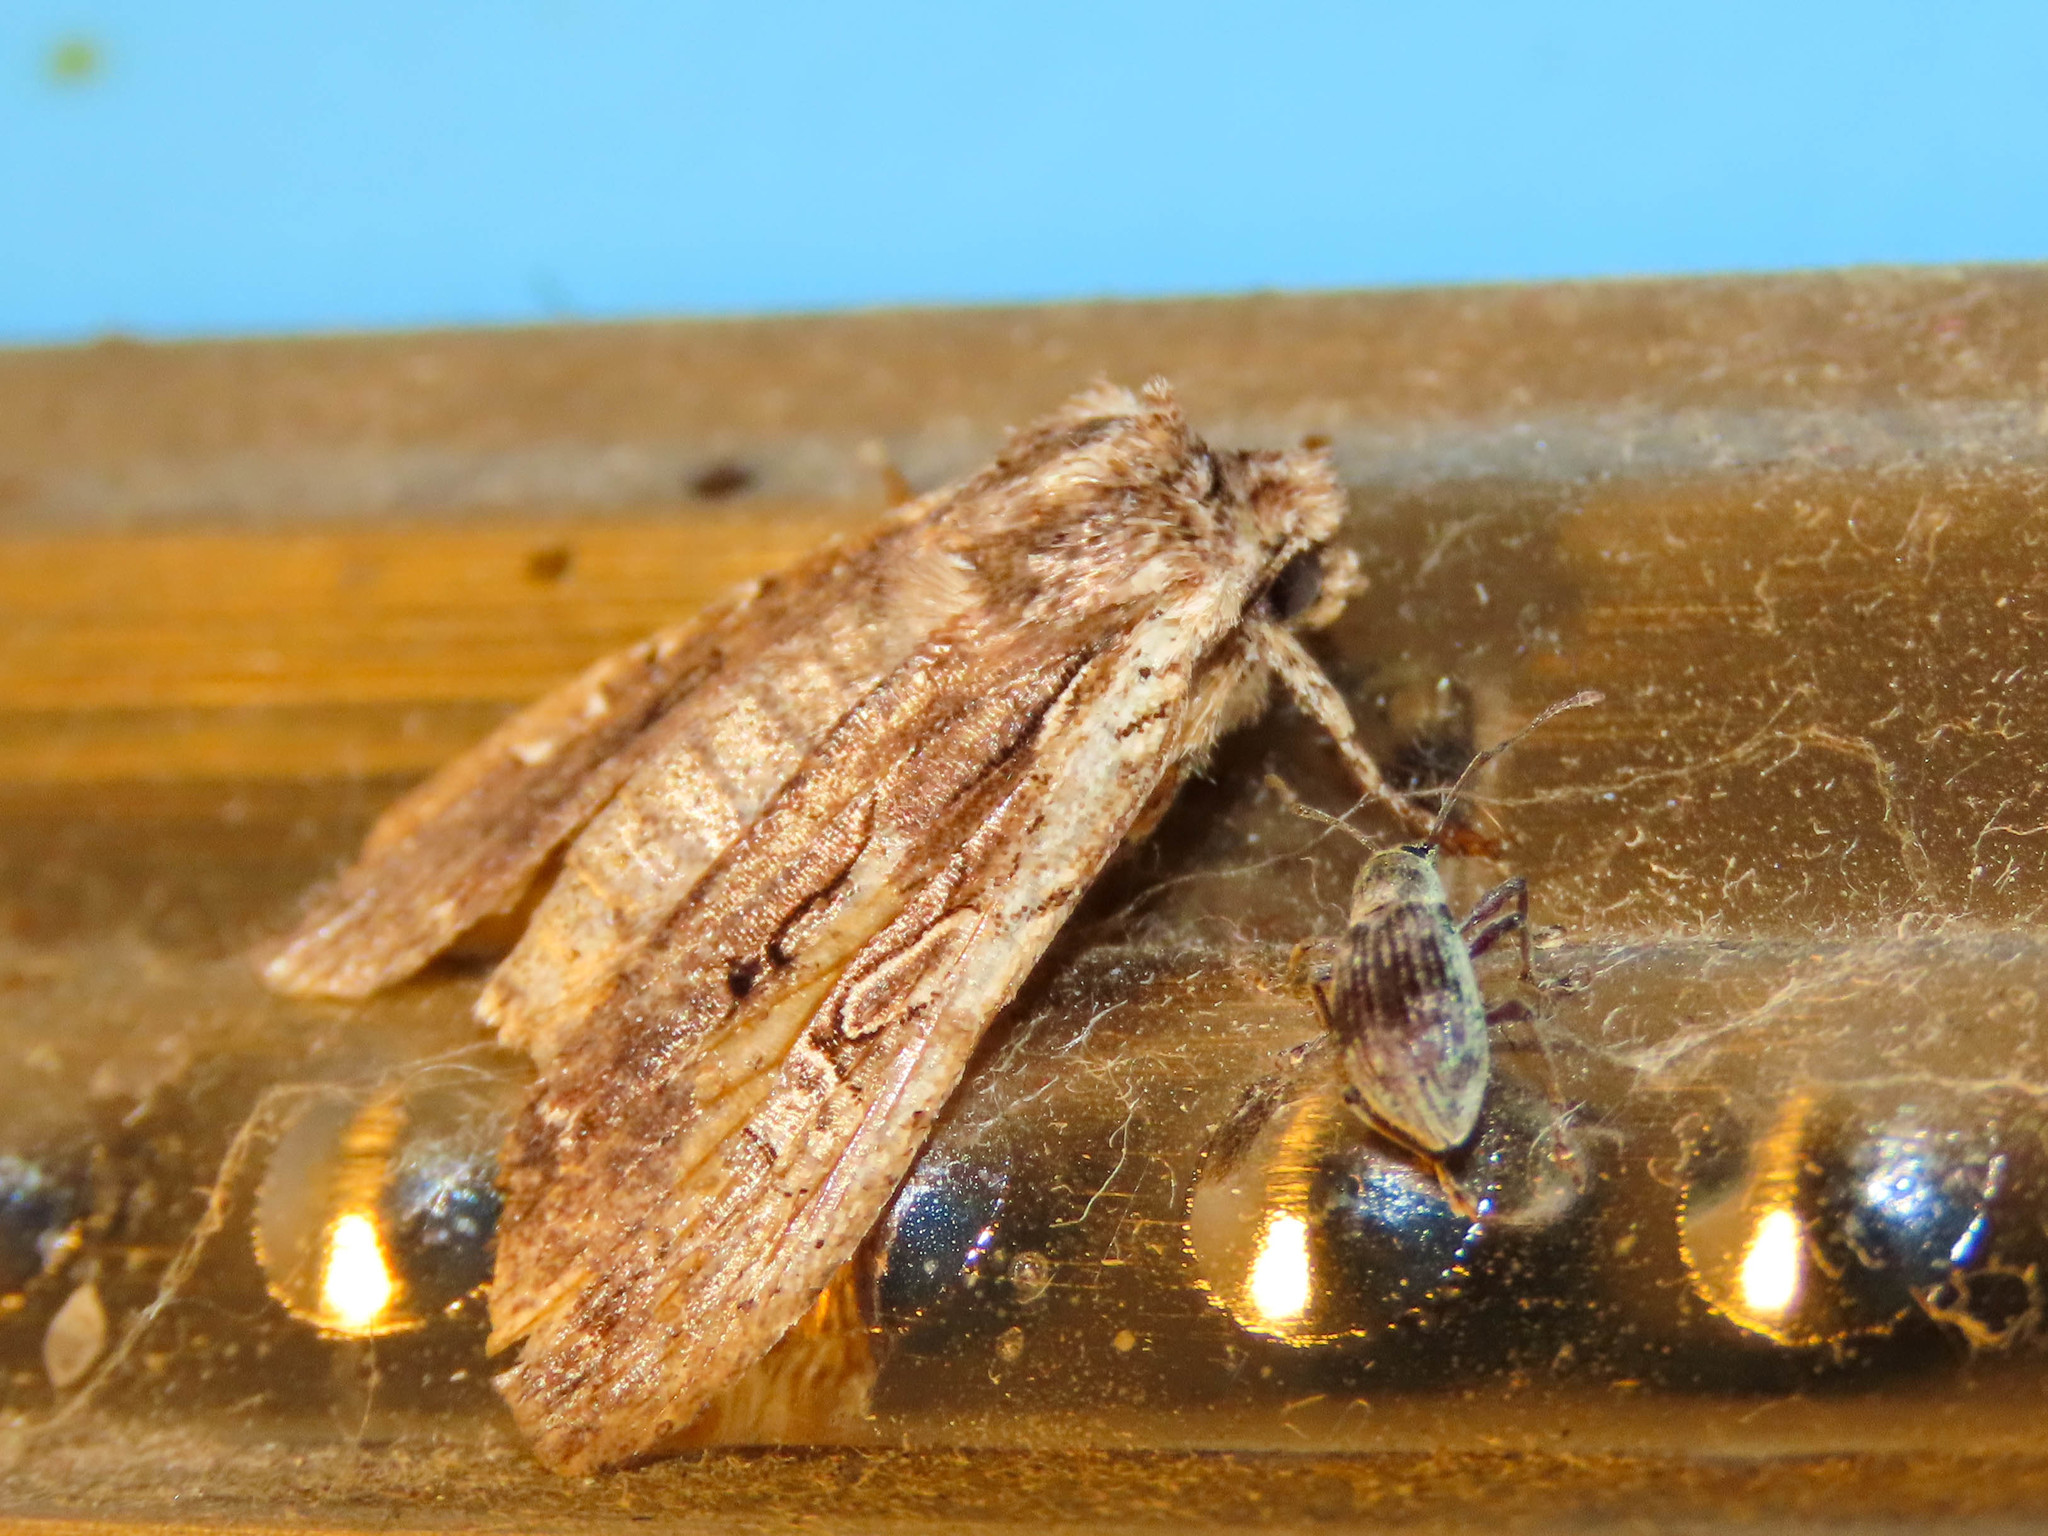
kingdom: Animalia
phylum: Arthropoda
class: Insecta
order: Lepidoptera
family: Noctuidae
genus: Lithophane
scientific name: Lithophane oriunda
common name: Immigrant pinion moth
